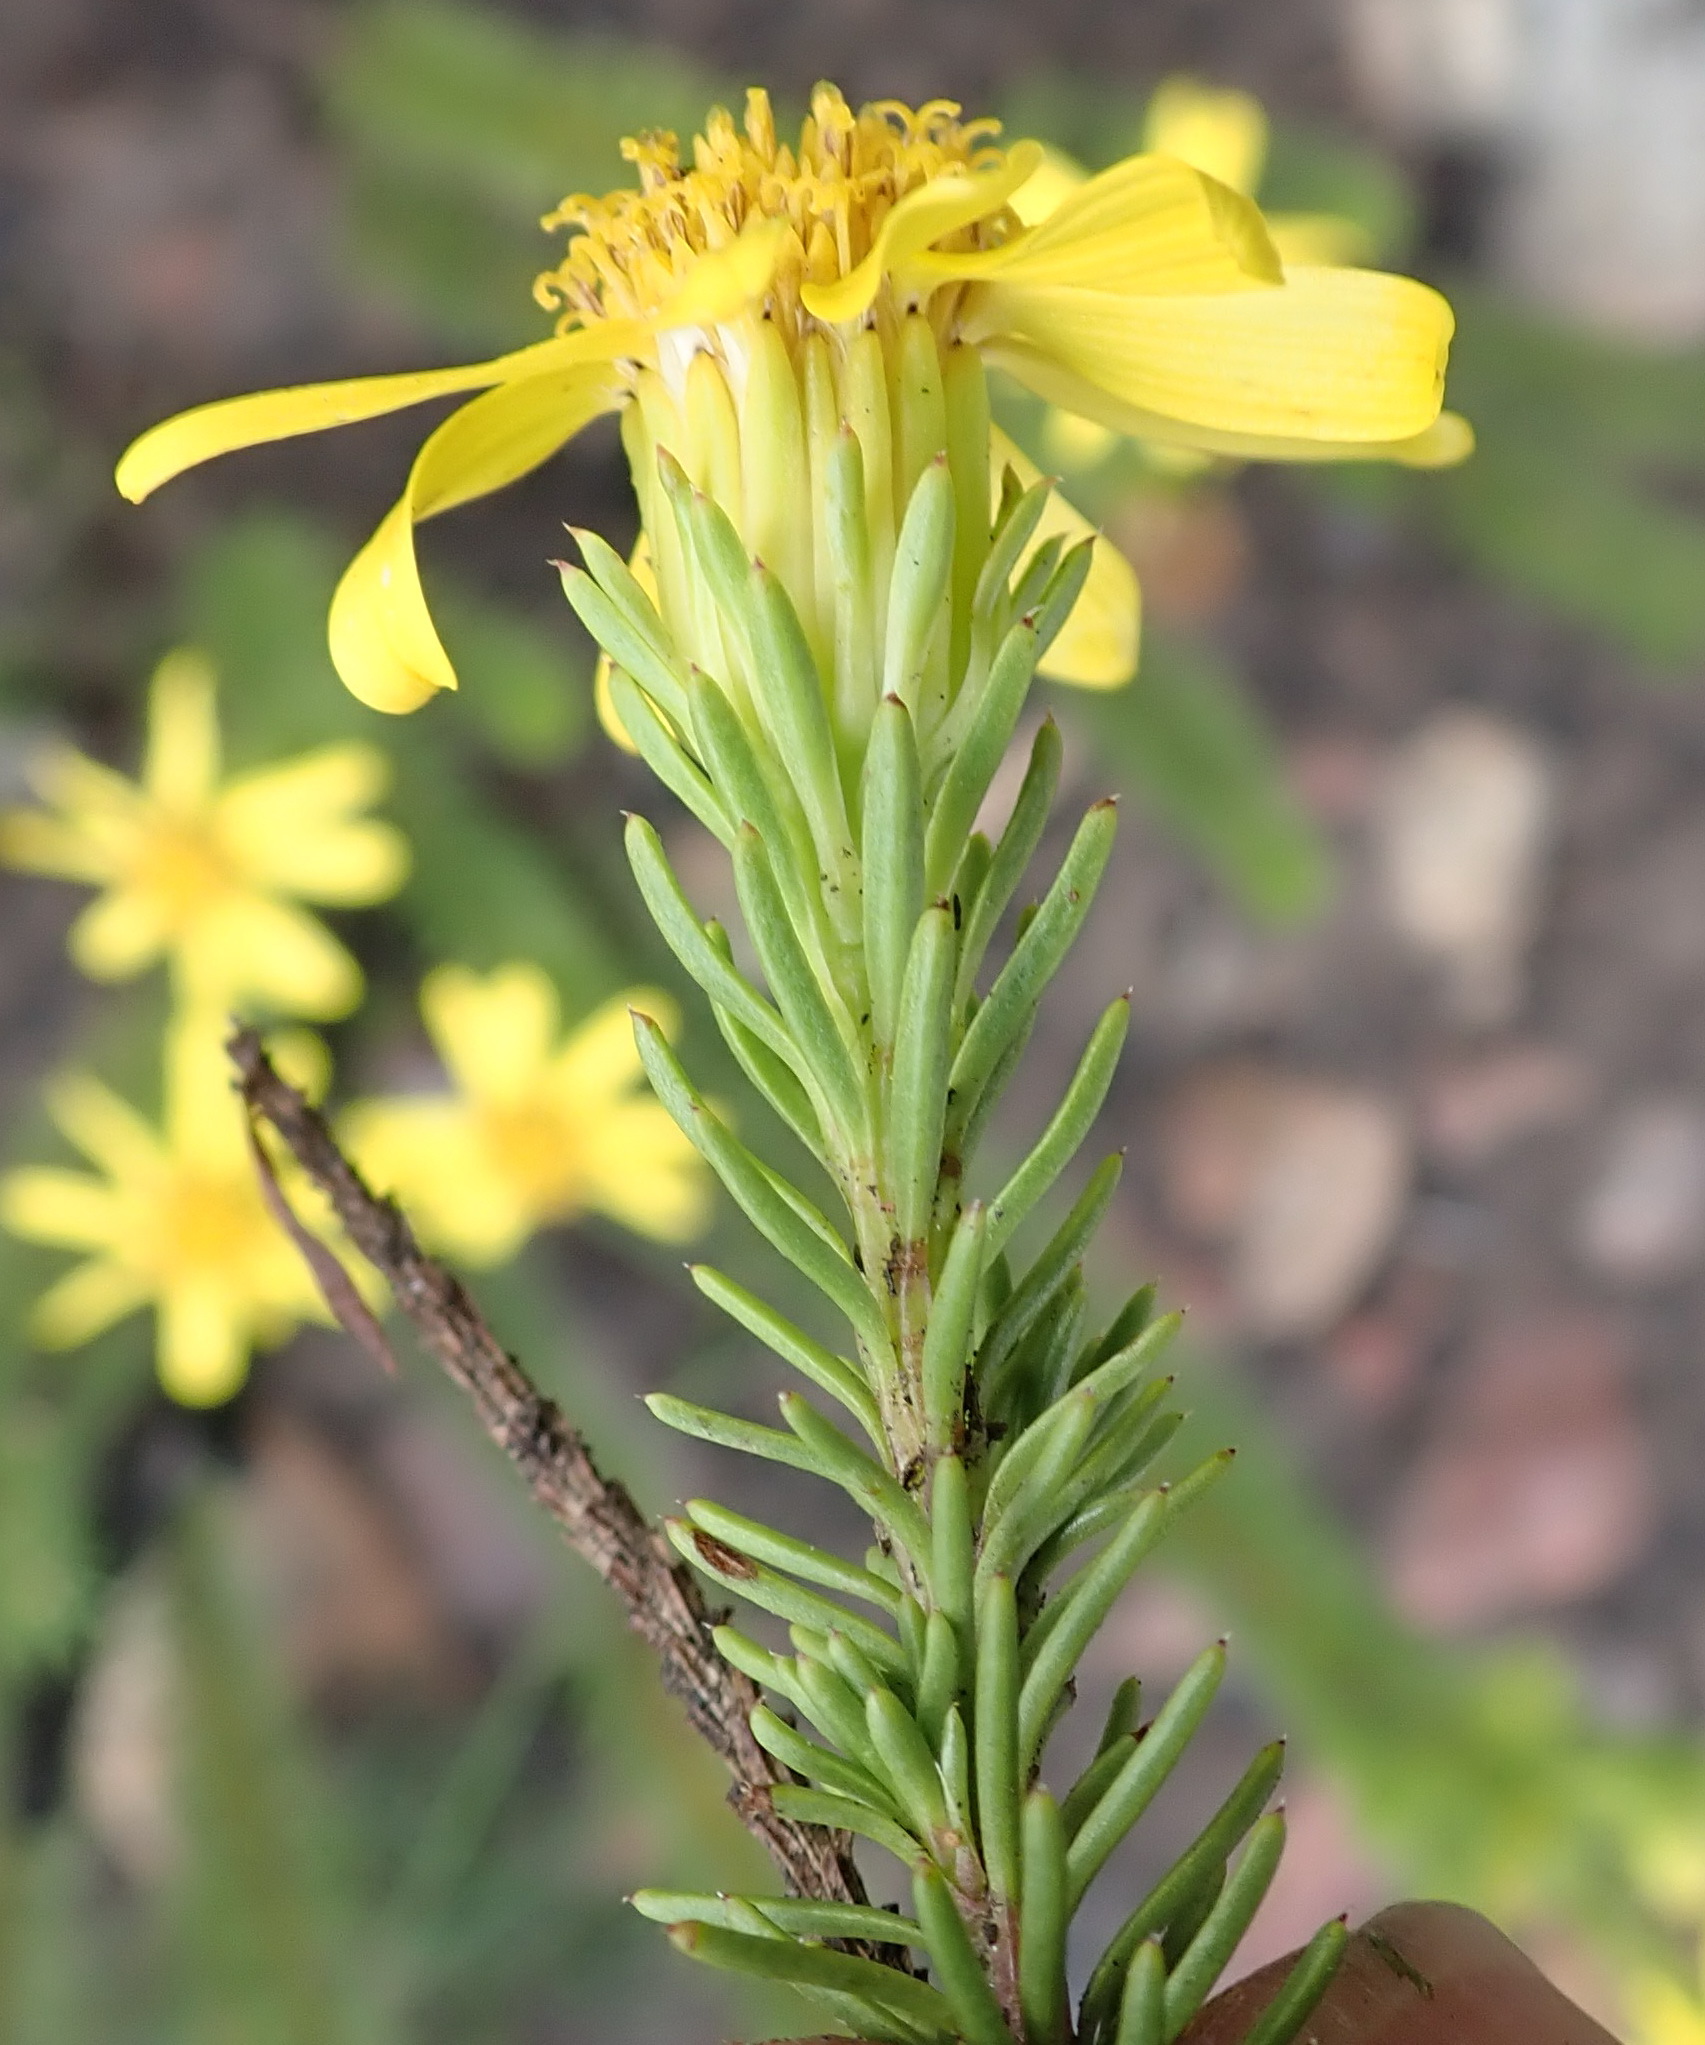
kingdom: Plantae
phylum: Tracheophyta
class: Magnoliopsida
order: Asterales
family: Asteraceae
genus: Senecio
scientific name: Senecio pinifolius
